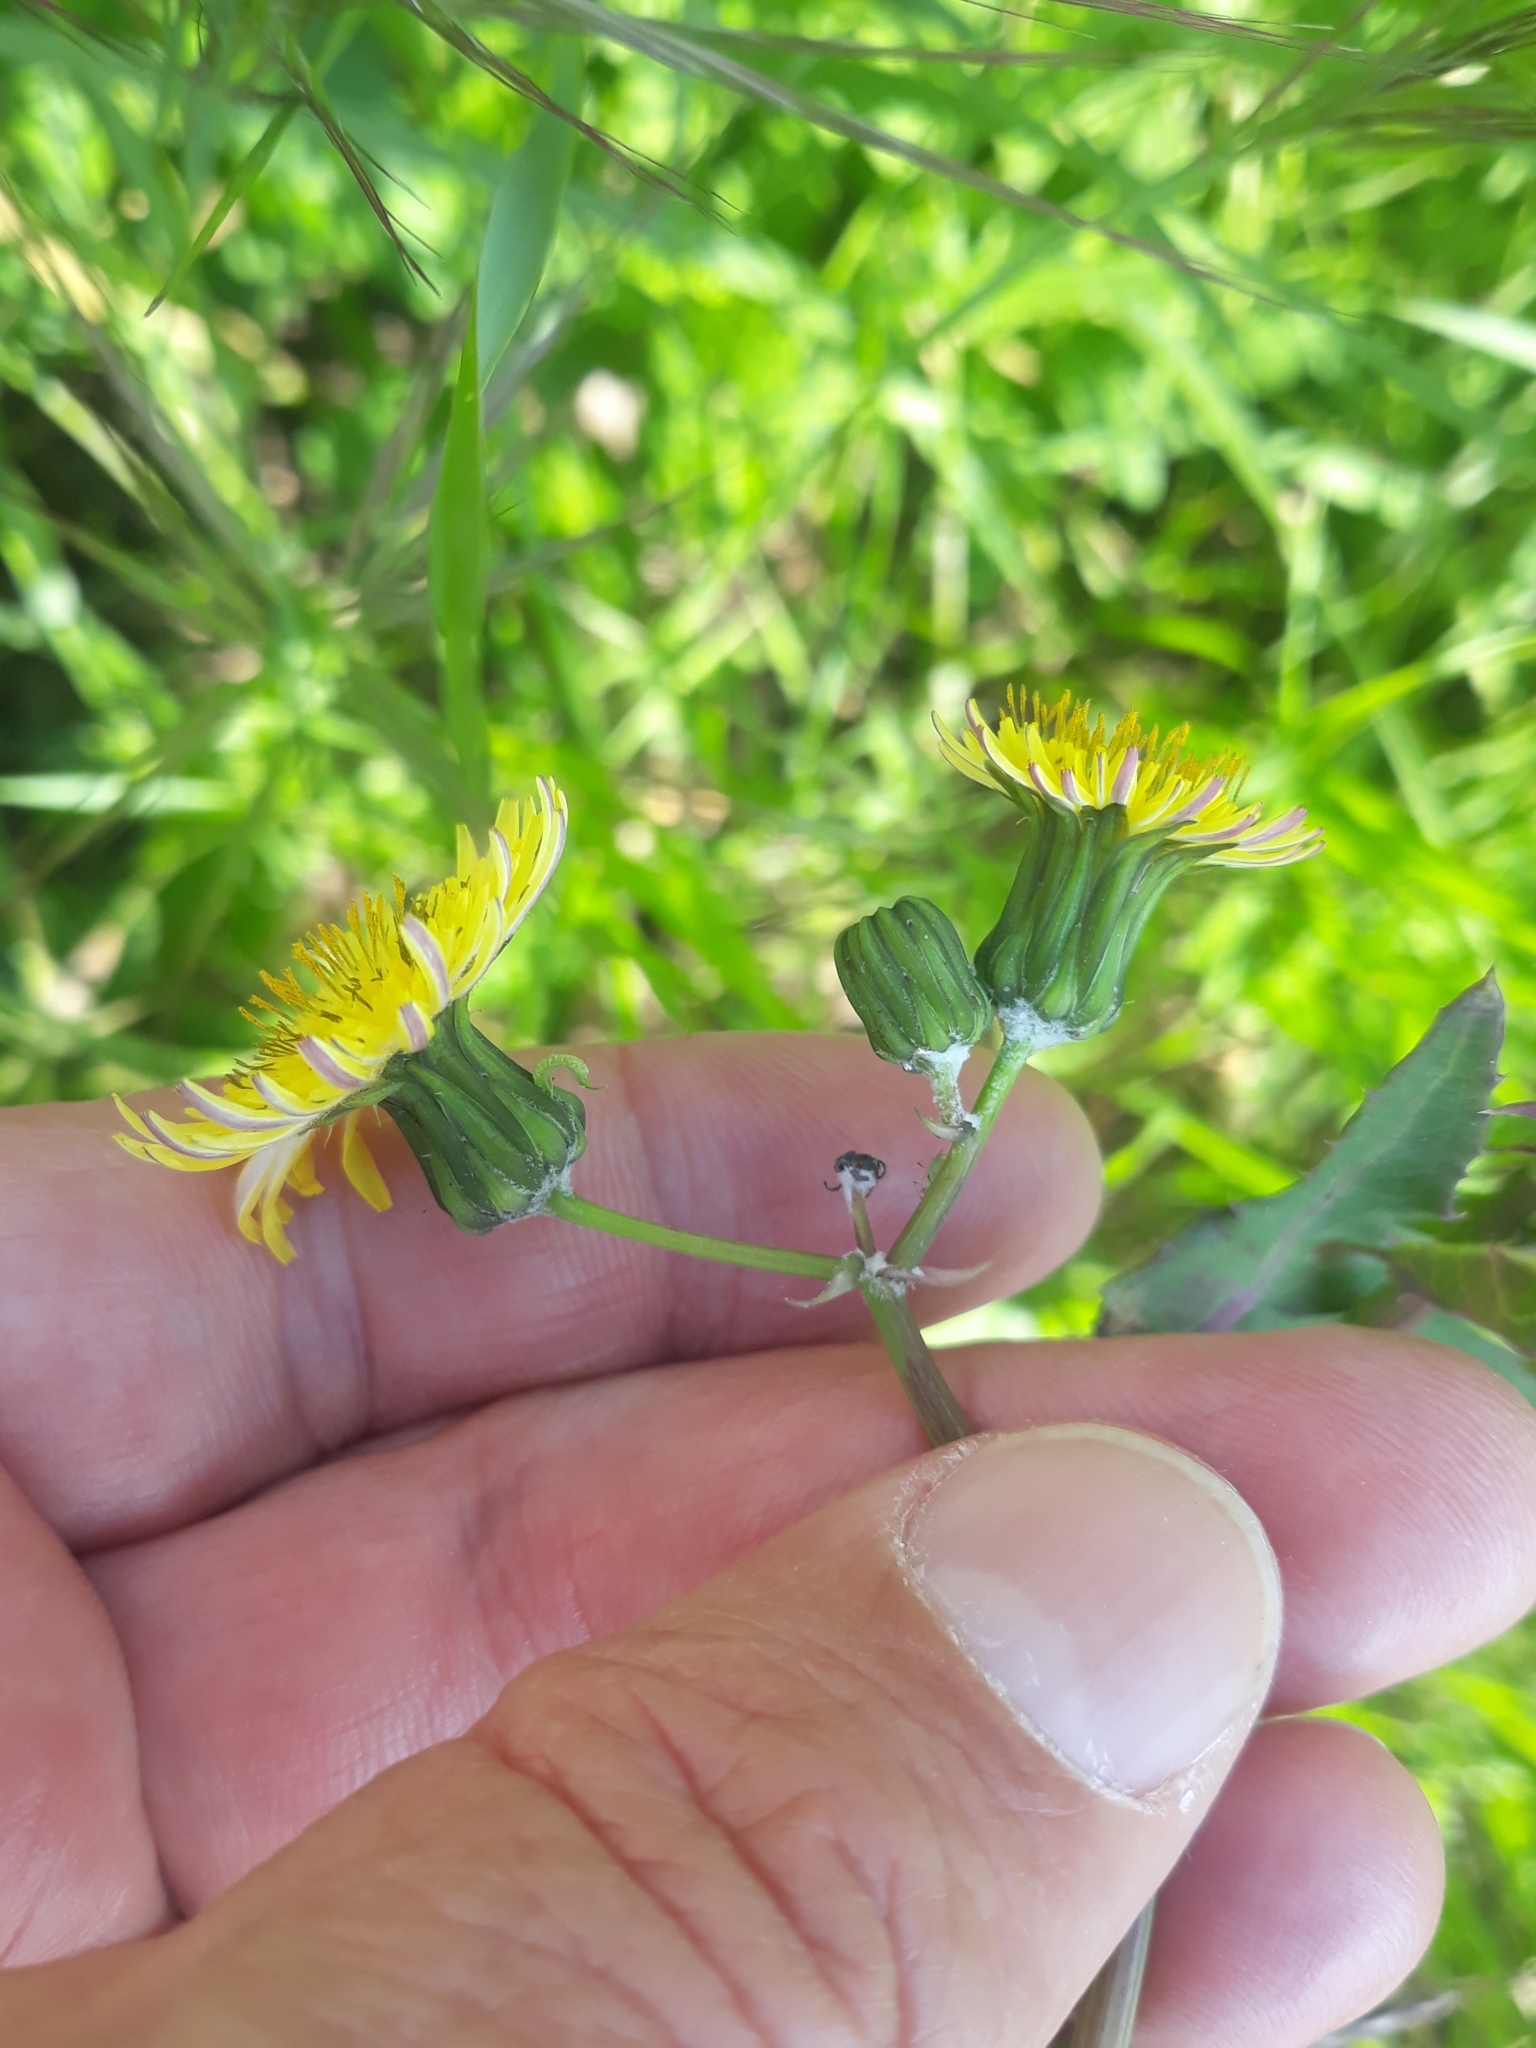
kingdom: Plantae
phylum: Tracheophyta
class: Magnoliopsida
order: Asterales
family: Asteraceae
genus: Sonchus
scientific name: Sonchus oleraceus
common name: Common sowthistle
